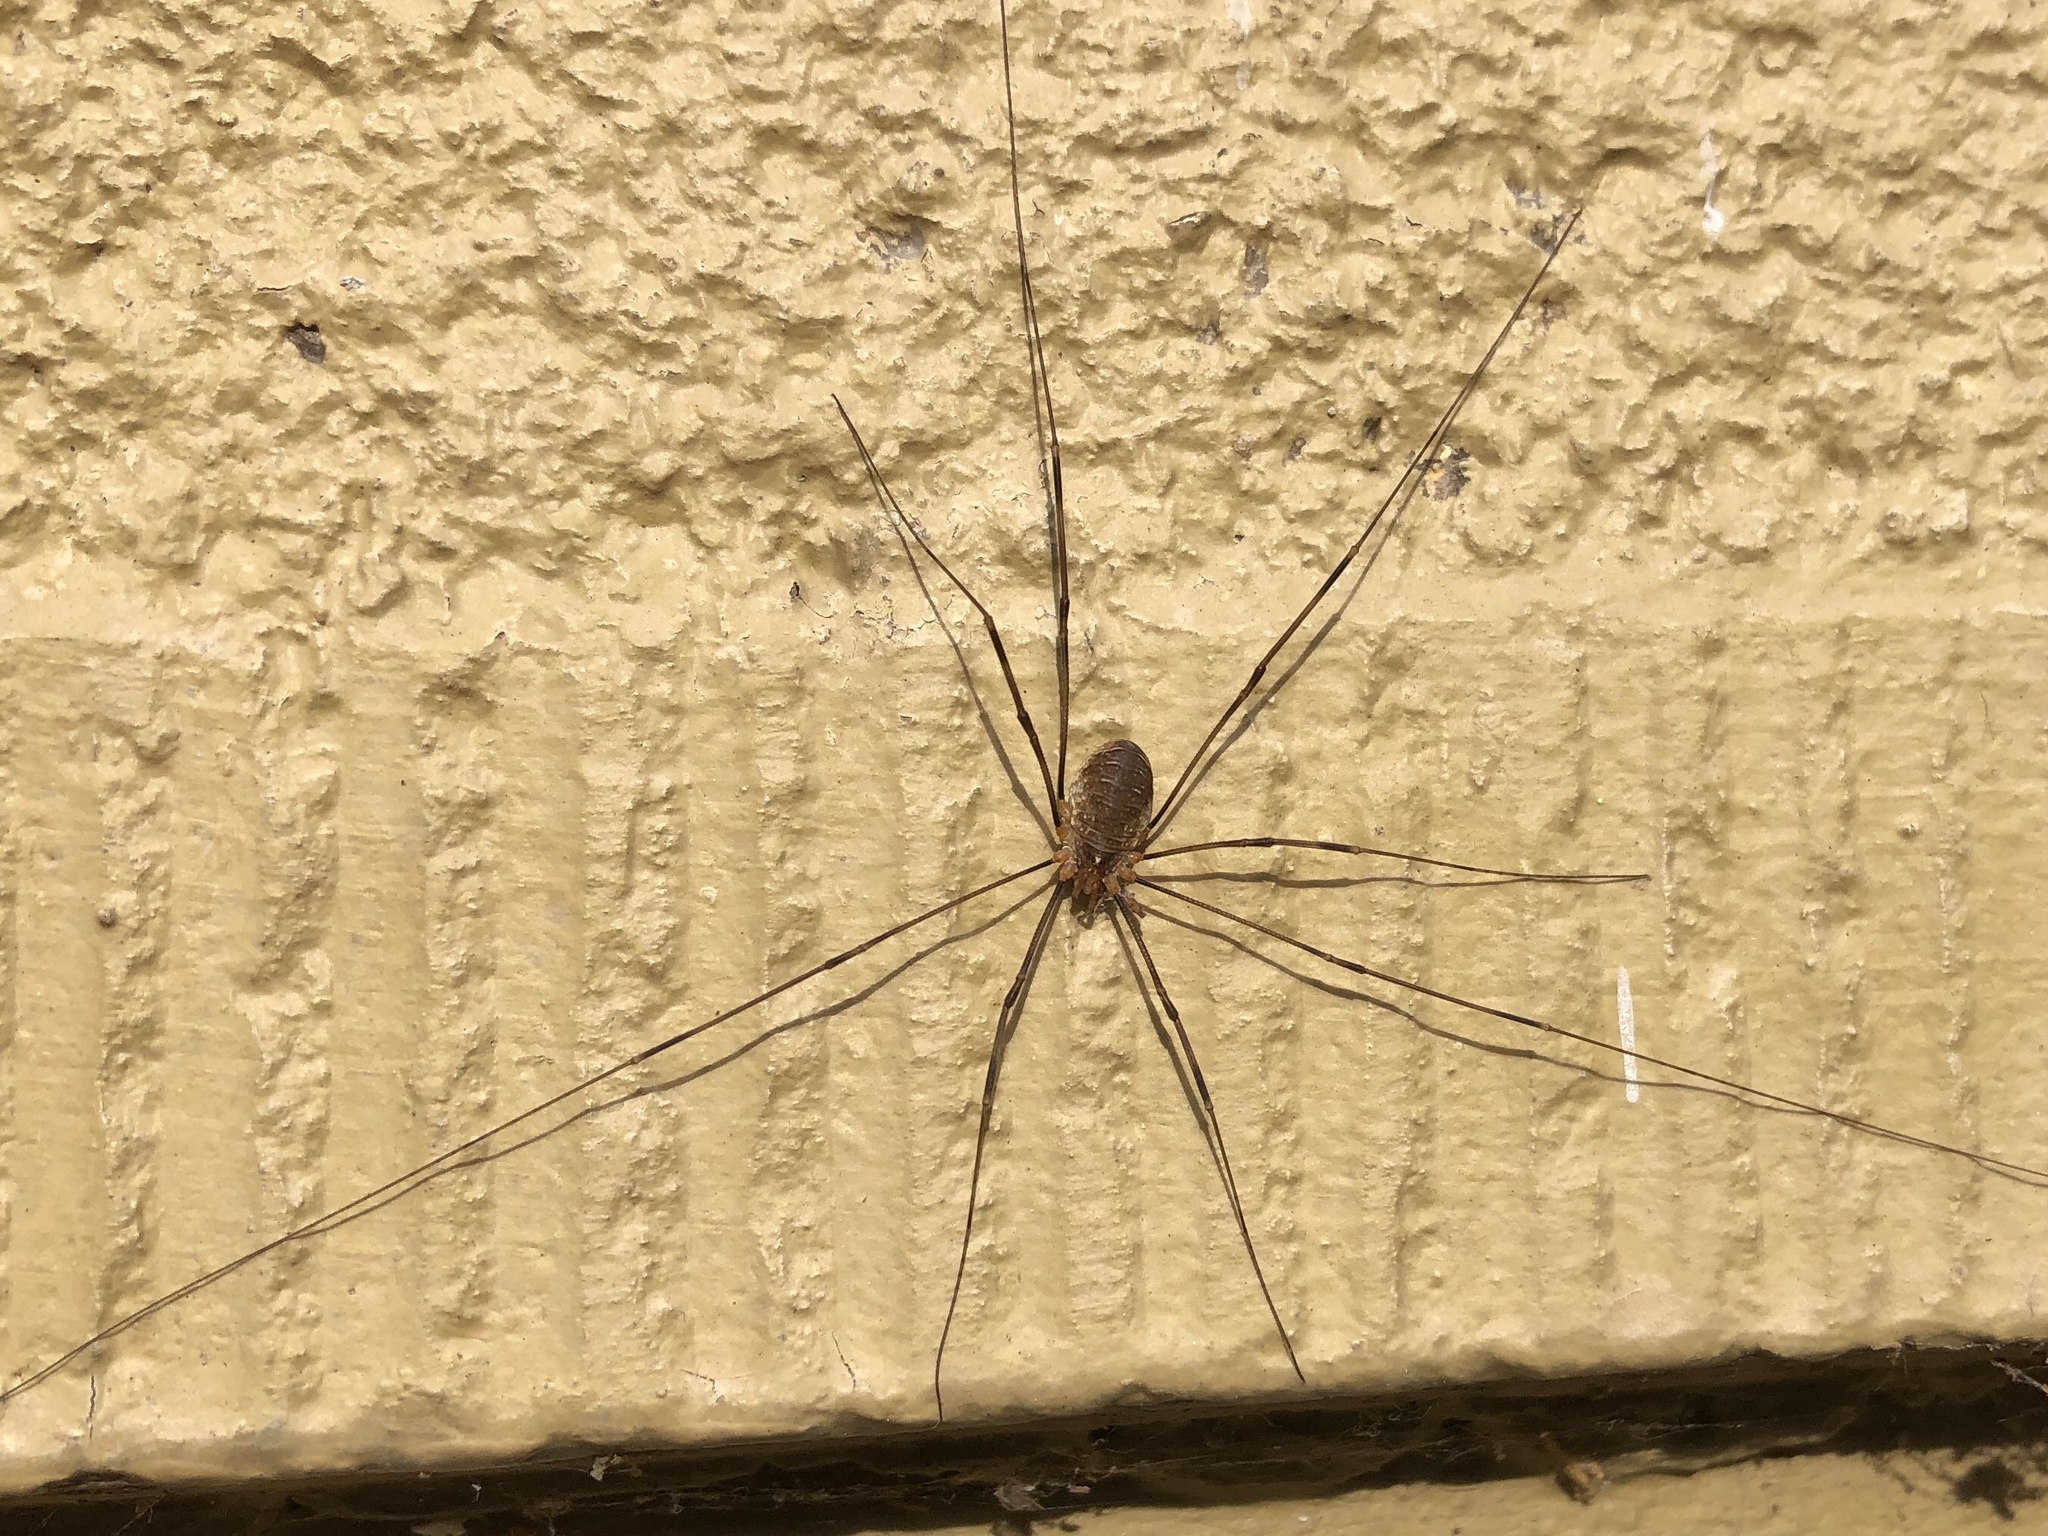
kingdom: Animalia
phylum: Arthropoda
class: Arachnida
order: Opiliones
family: Phalangiidae
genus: Opilio
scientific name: Opilio canestrinii
